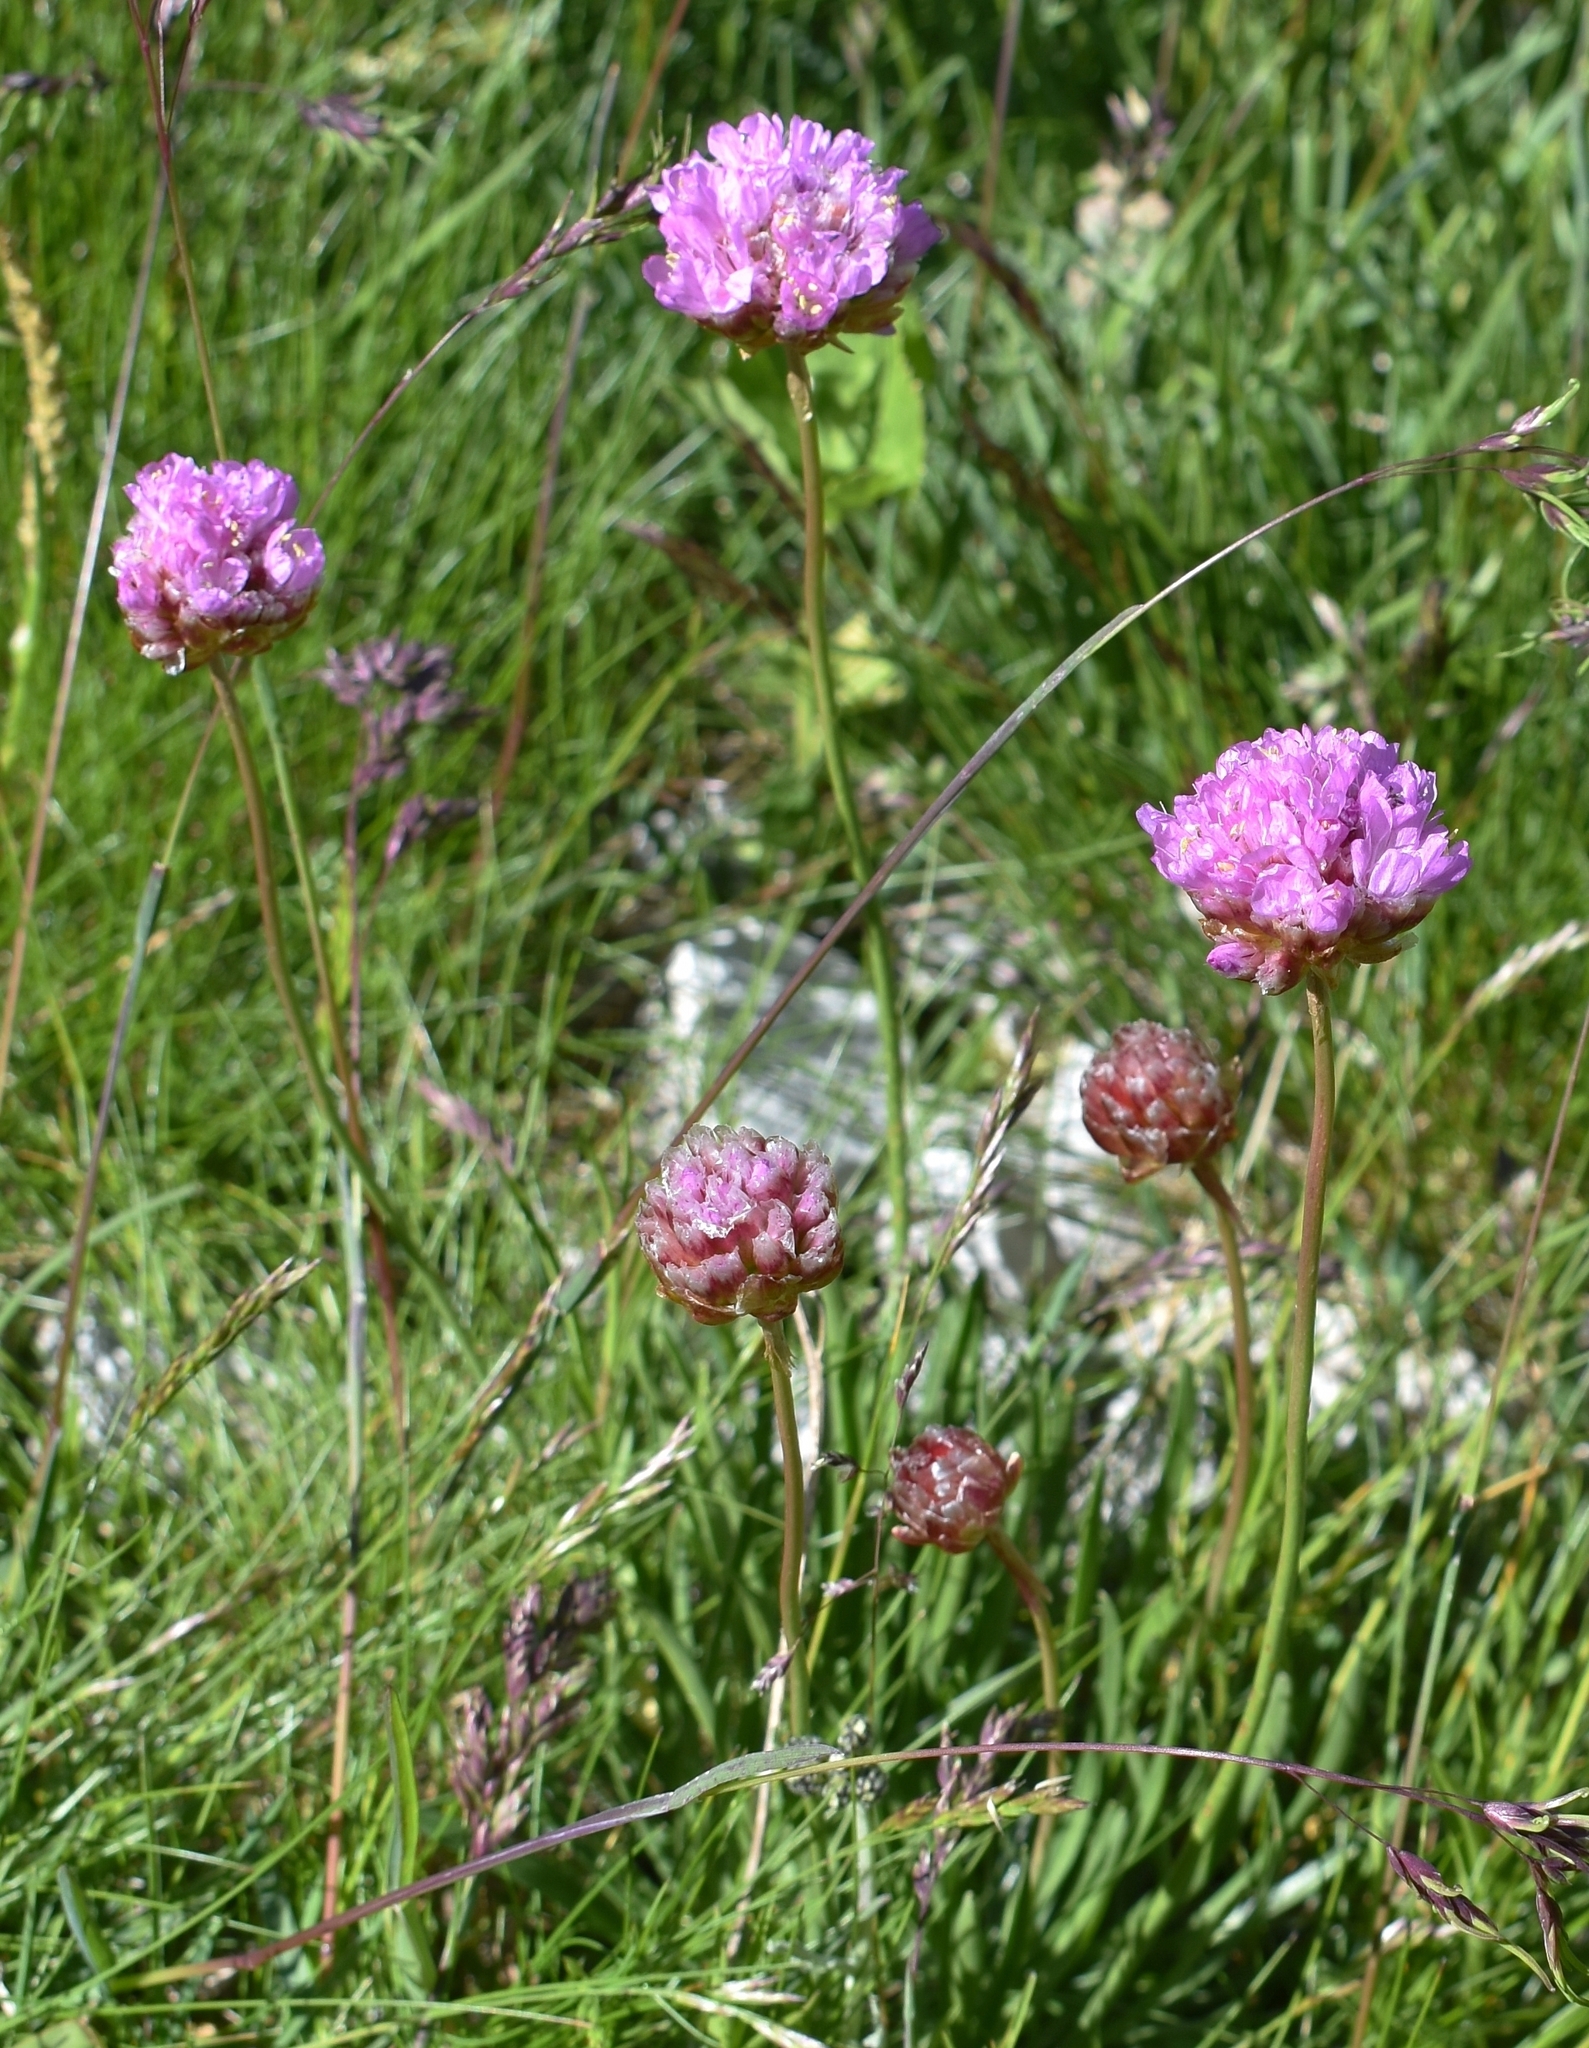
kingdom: Plantae
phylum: Tracheophyta
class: Magnoliopsida
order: Caryophyllales
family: Plumbaginaceae
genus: Armeria
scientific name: Armeria alpina
